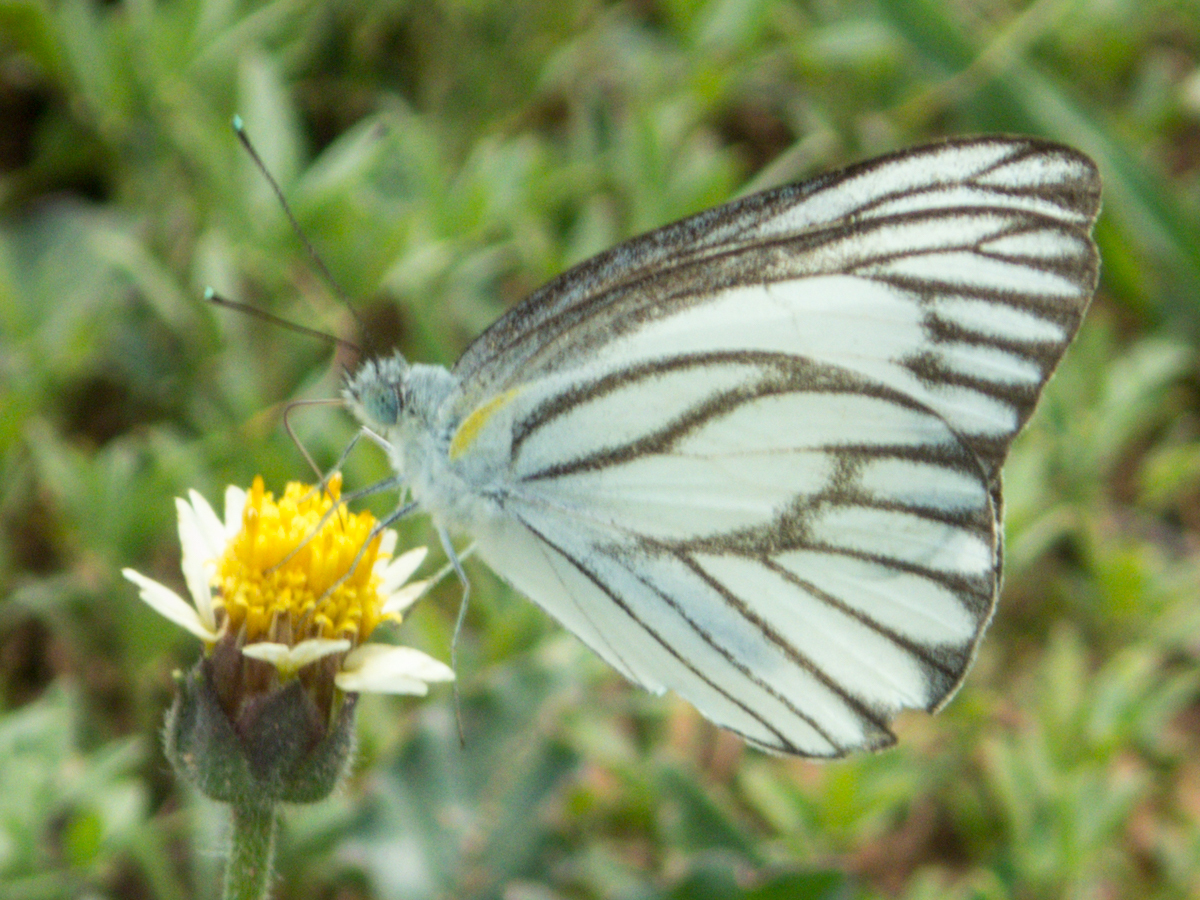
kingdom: Animalia
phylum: Arthropoda
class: Insecta
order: Lepidoptera
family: Pieridae
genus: Appias
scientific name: Appias libythea
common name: Striped albatross
